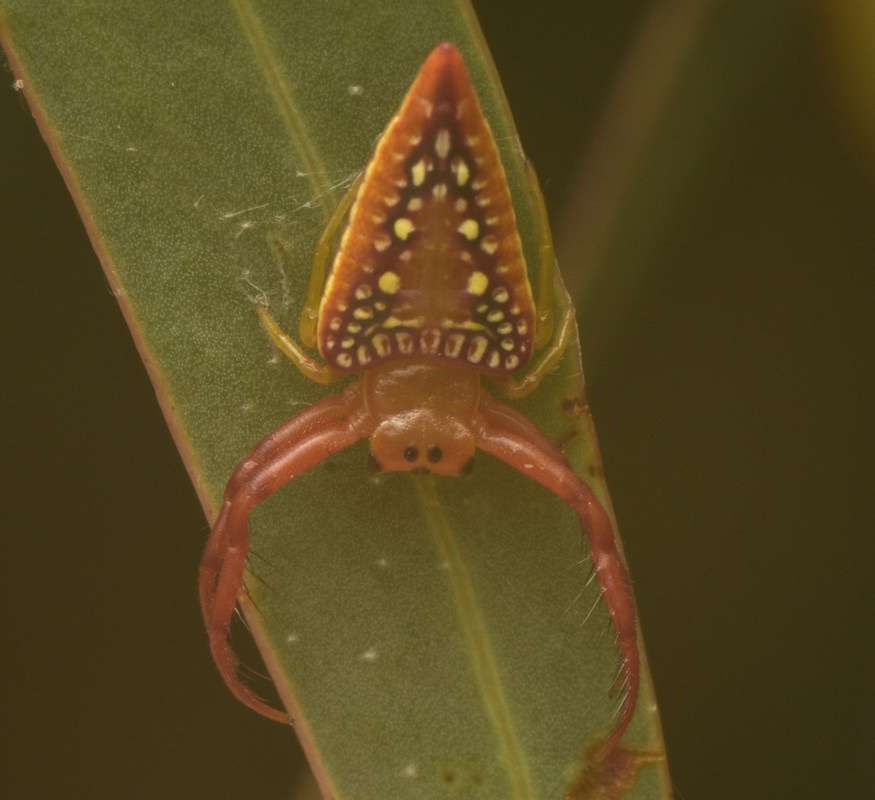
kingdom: Animalia
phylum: Arthropoda
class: Arachnida
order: Araneae
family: Arkyidae
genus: Arkys
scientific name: Arkys walckenaeri
